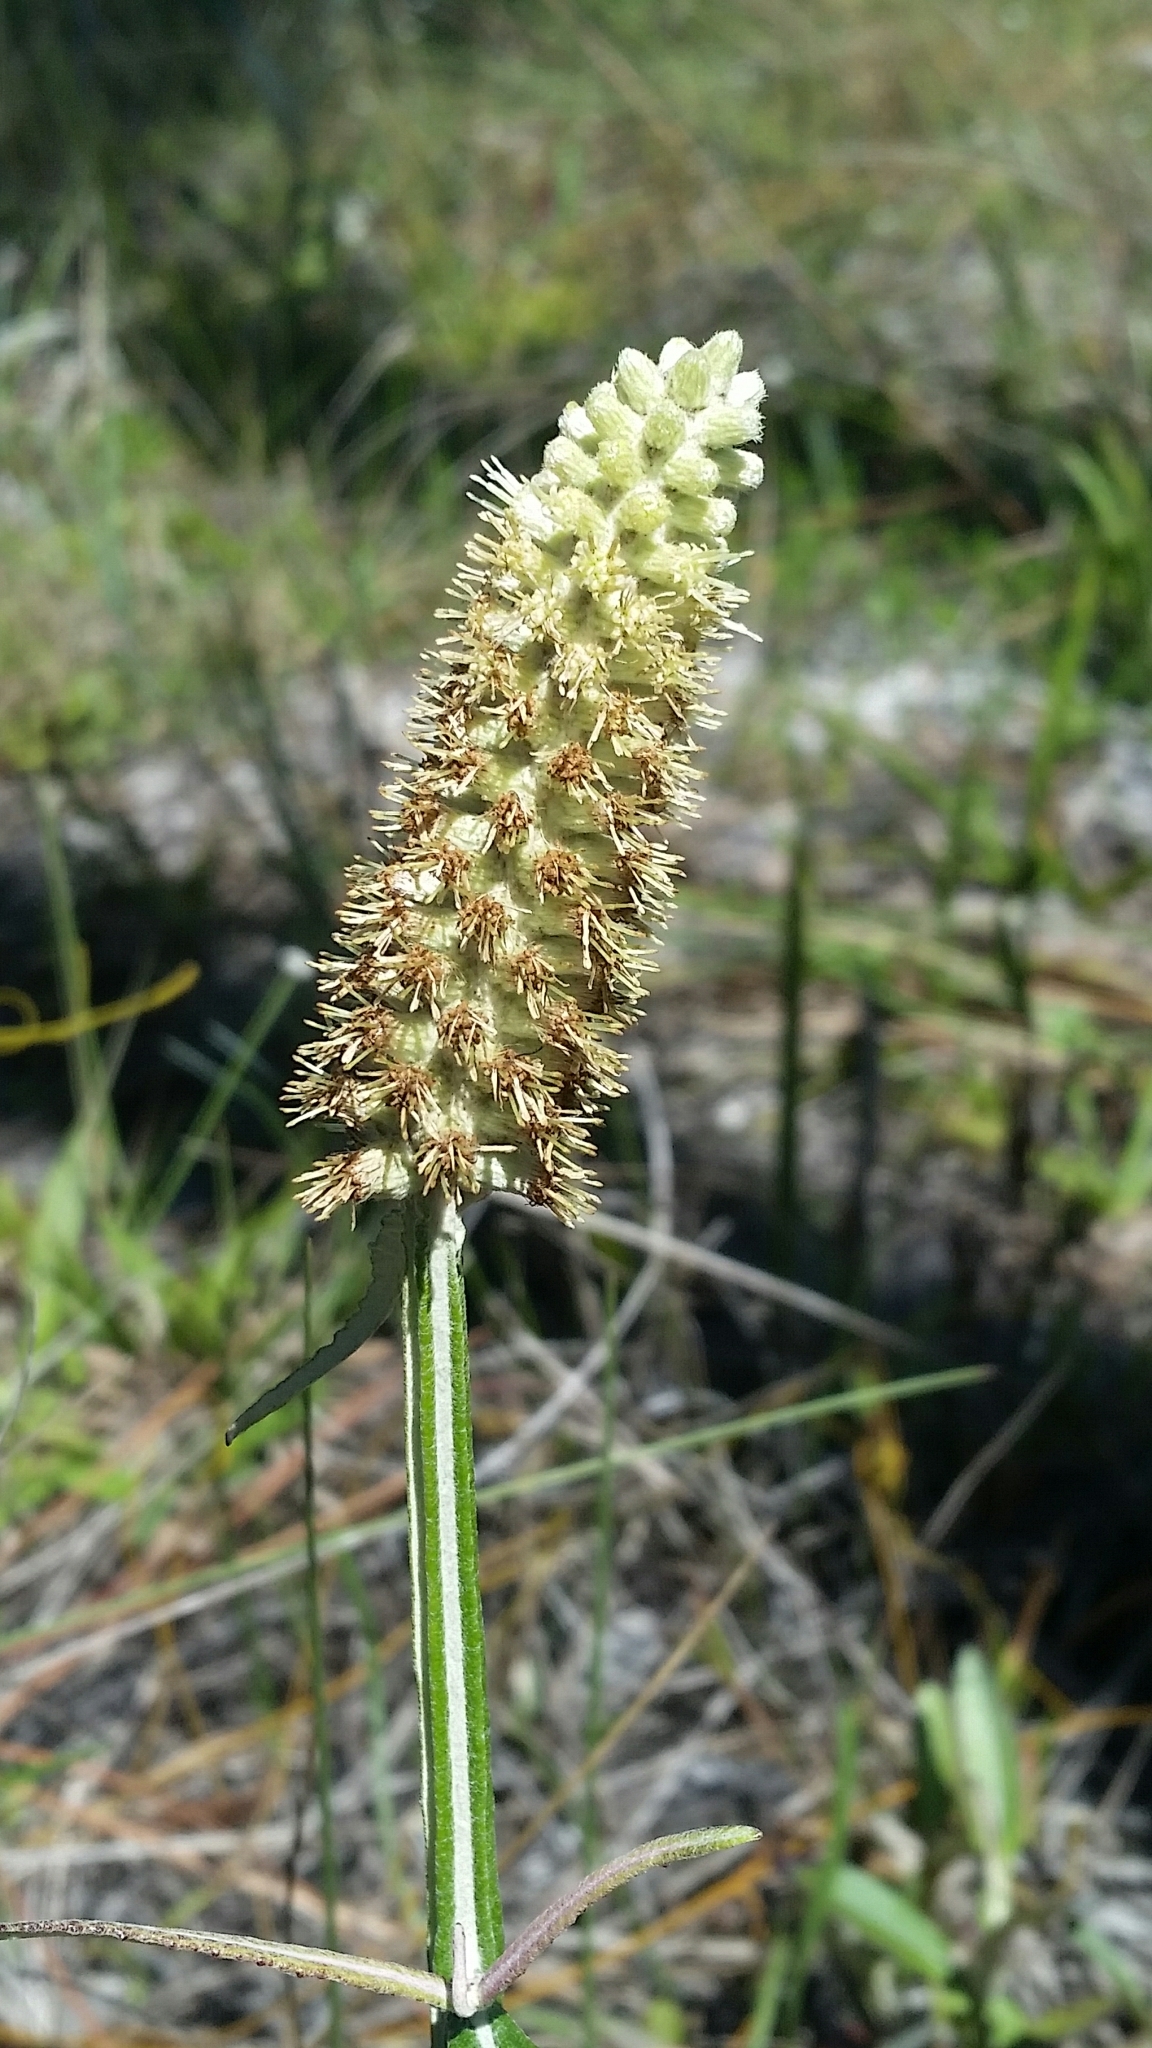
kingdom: Plantae
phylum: Tracheophyta
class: Magnoliopsida
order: Asterales
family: Asteraceae
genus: Pterocaulon
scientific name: Pterocaulon pycnostachyum
